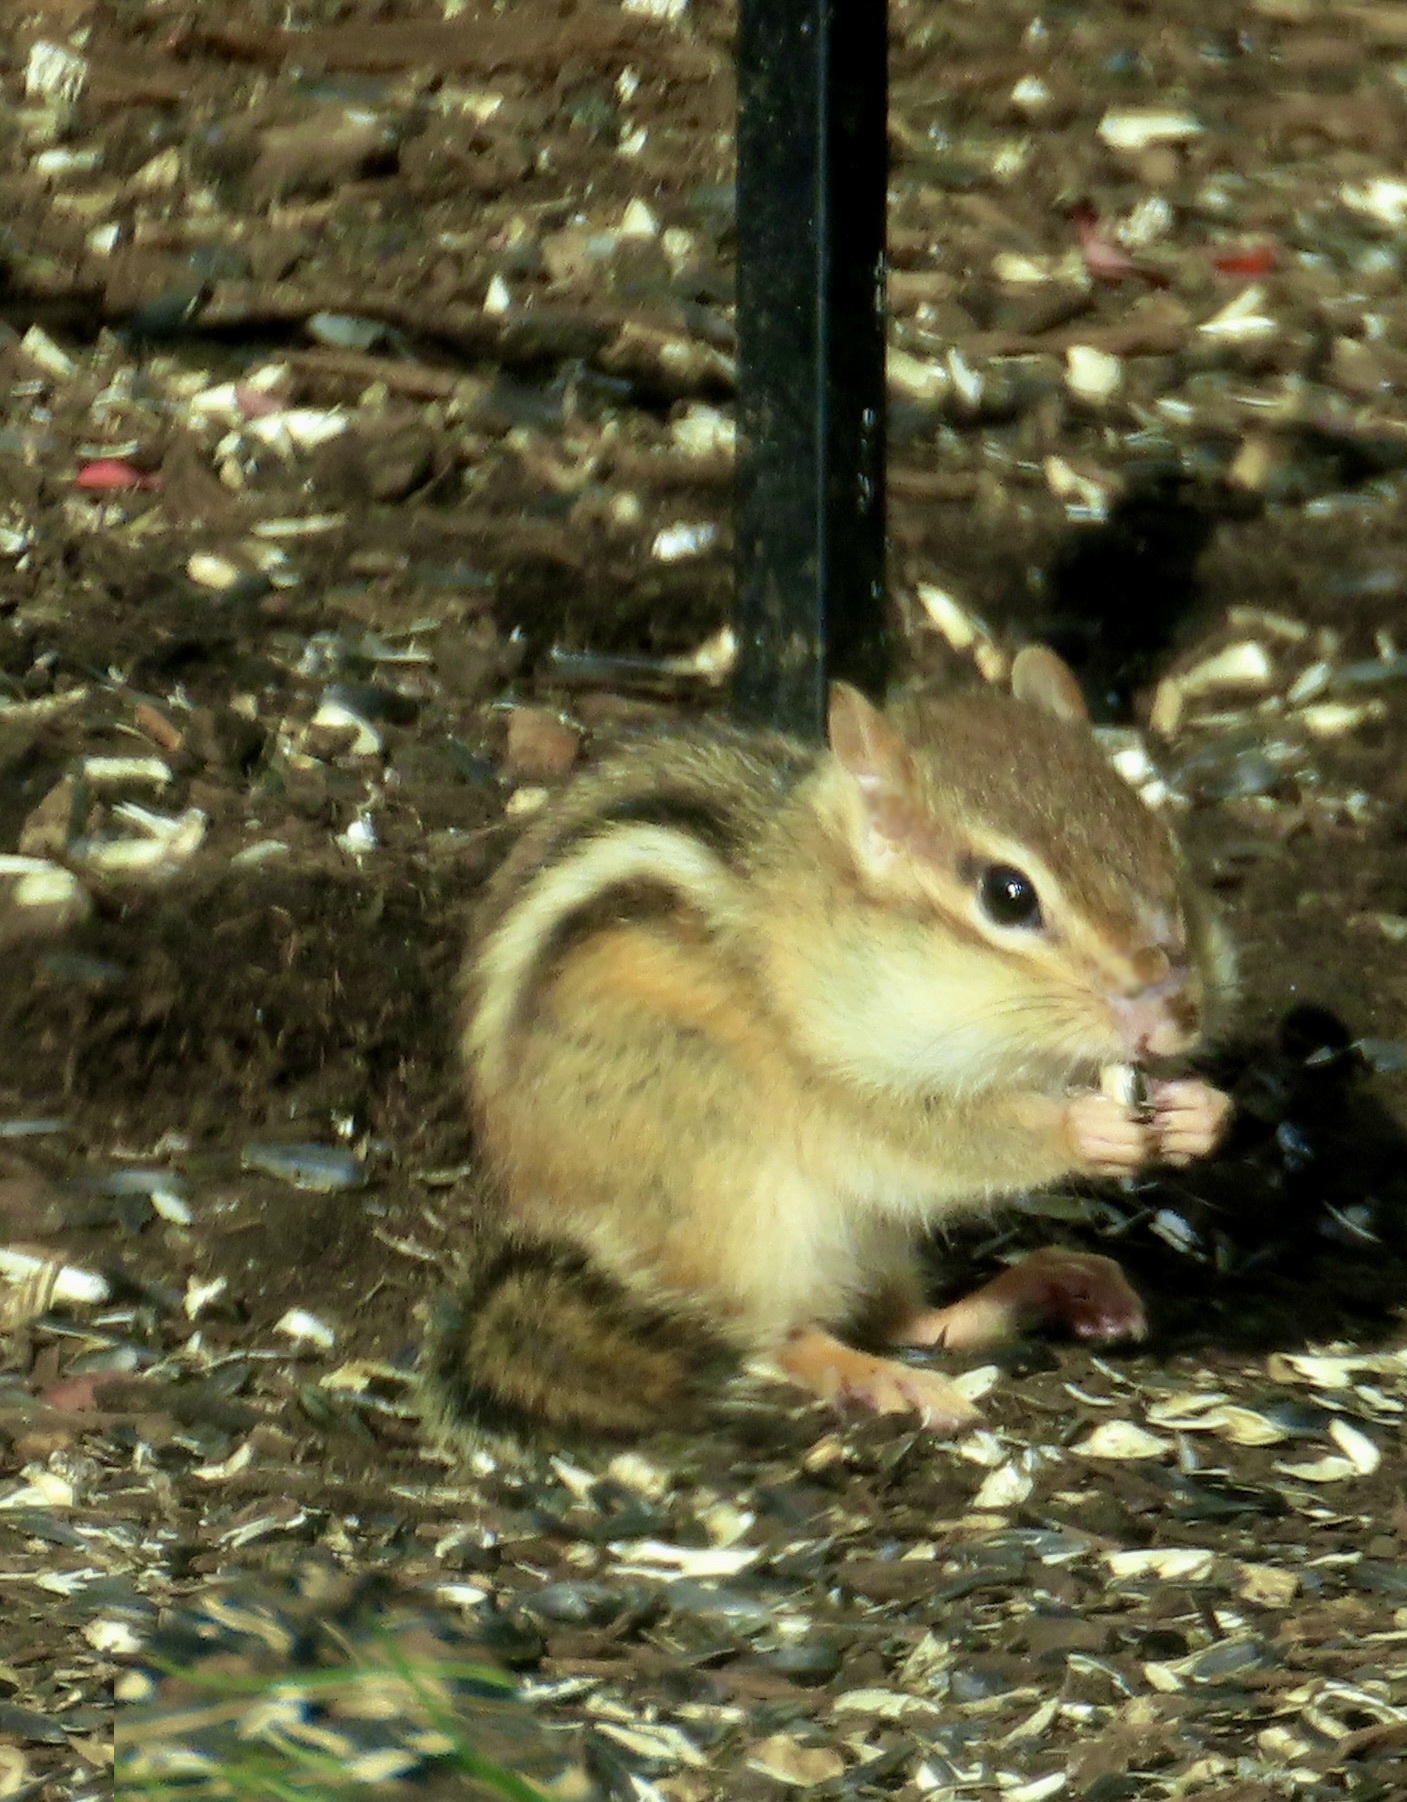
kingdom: Animalia
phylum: Chordata
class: Mammalia
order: Rodentia
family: Sciuridae
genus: Tamias
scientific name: Tamias striatus
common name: Eastern chipmunk
